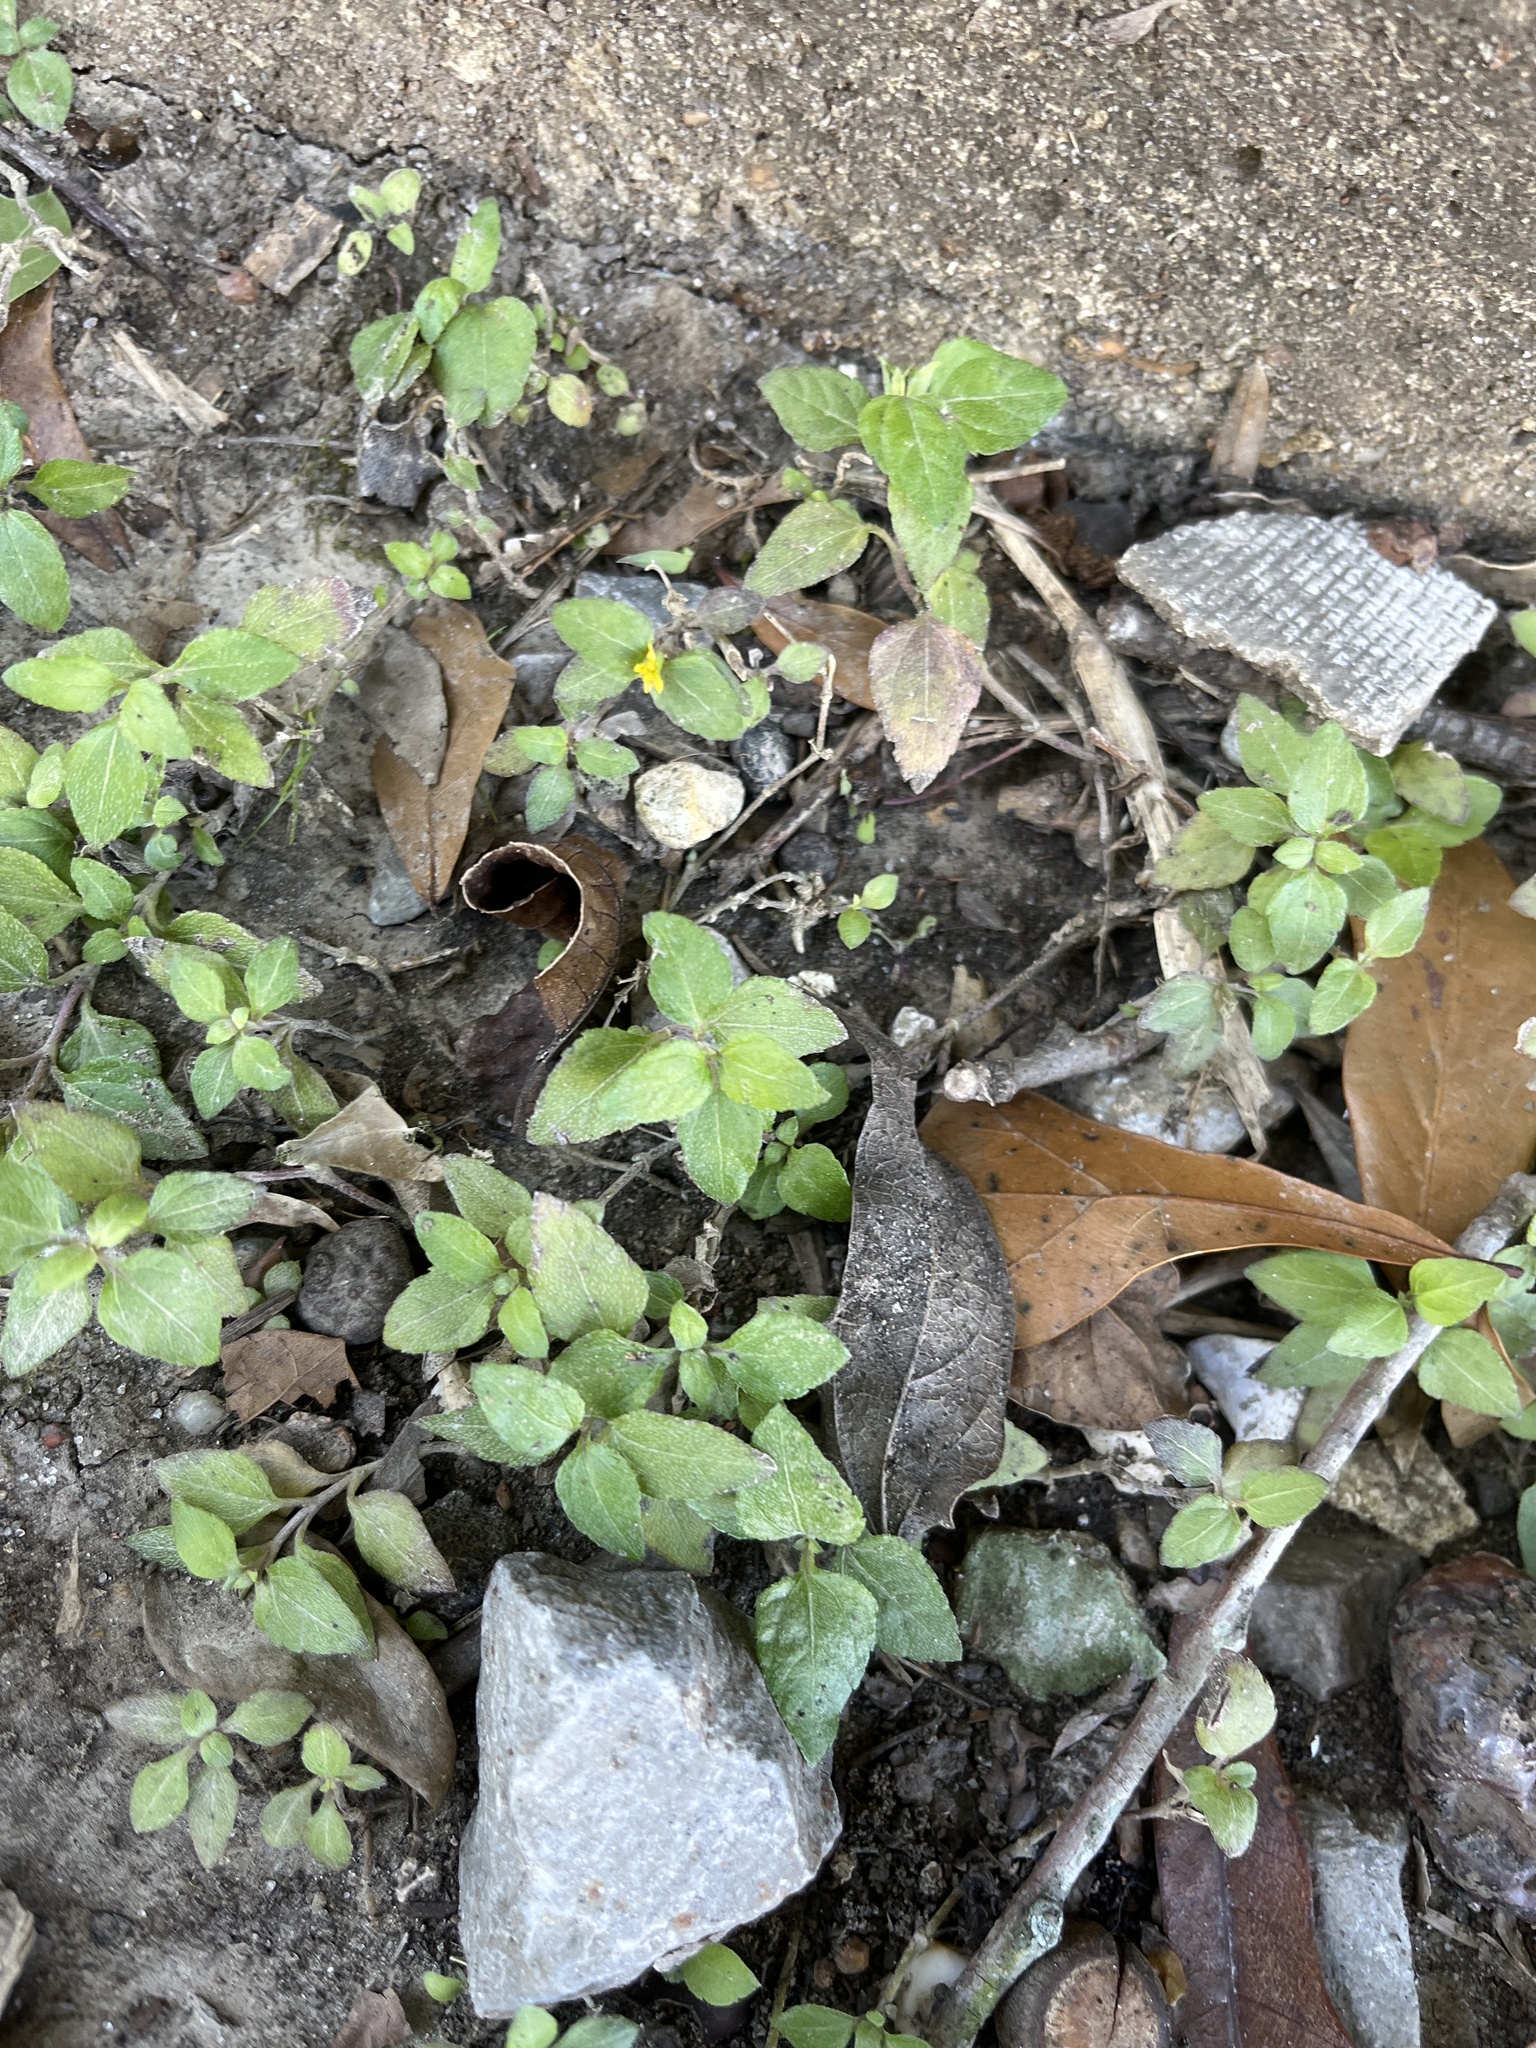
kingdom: Plantae
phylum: Tracheophyta
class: Magnoliopsida
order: Asterales
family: Asteraceae
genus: Calyptocarpus
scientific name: Calyptocarpus vialis
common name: Straggler daisy
